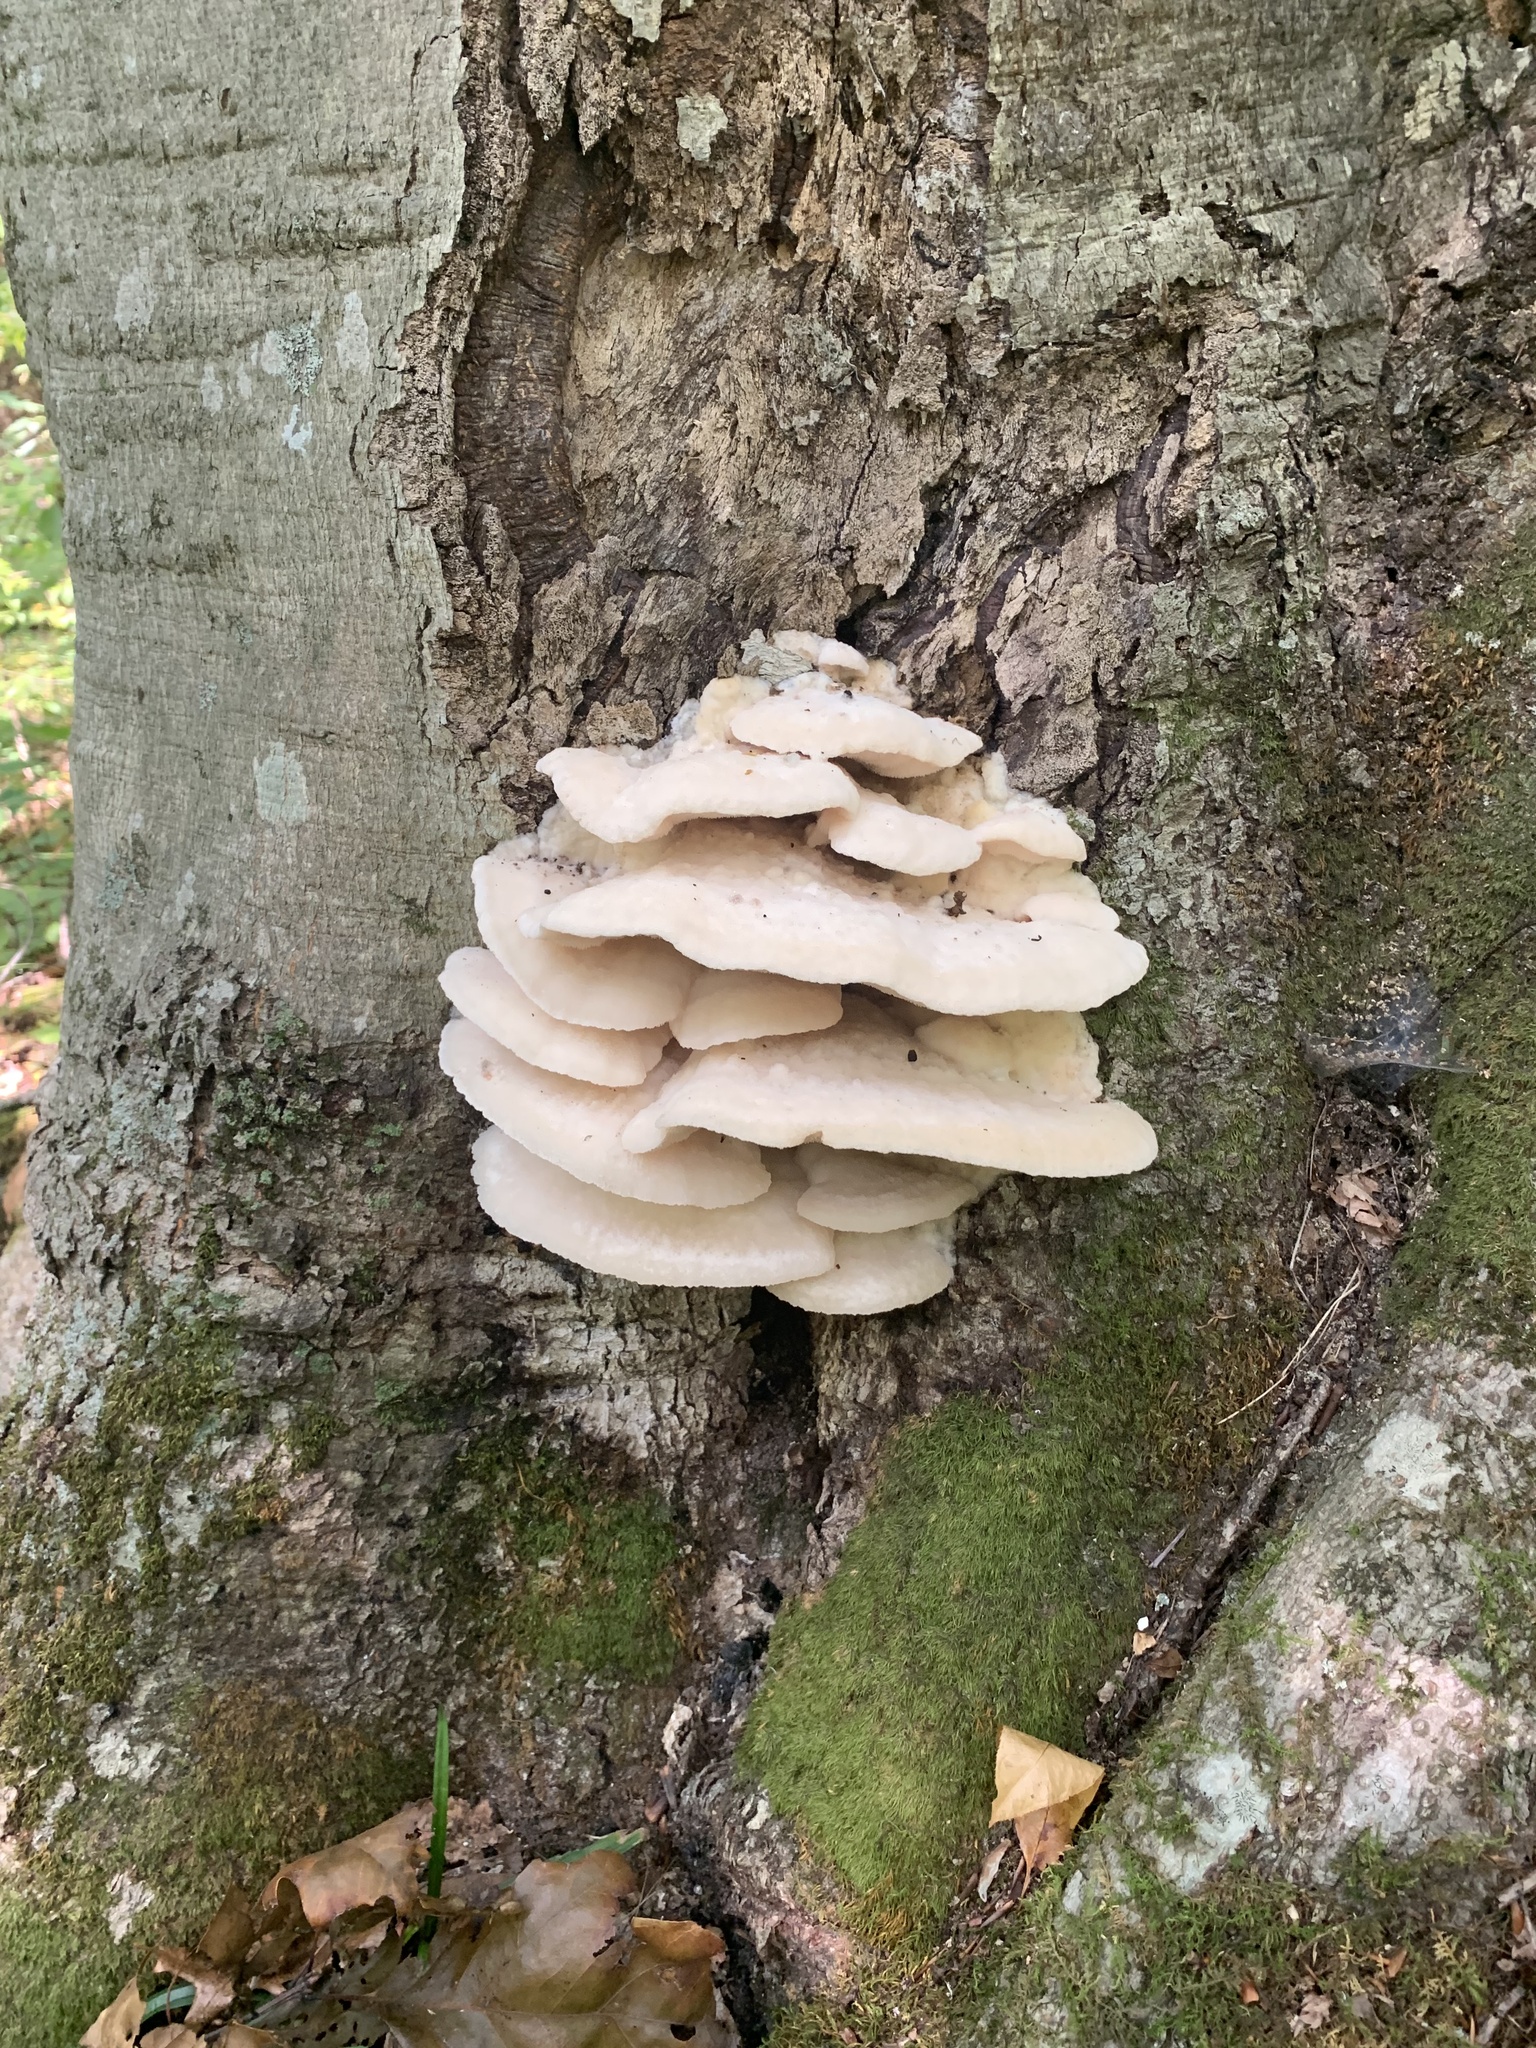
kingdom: Fungi
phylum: Basidiomycota
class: Agaricomycetes
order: Polyporales
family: Meruliaceae
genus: Climacodon
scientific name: Climacodon septentrionalis
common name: Northern tooth
